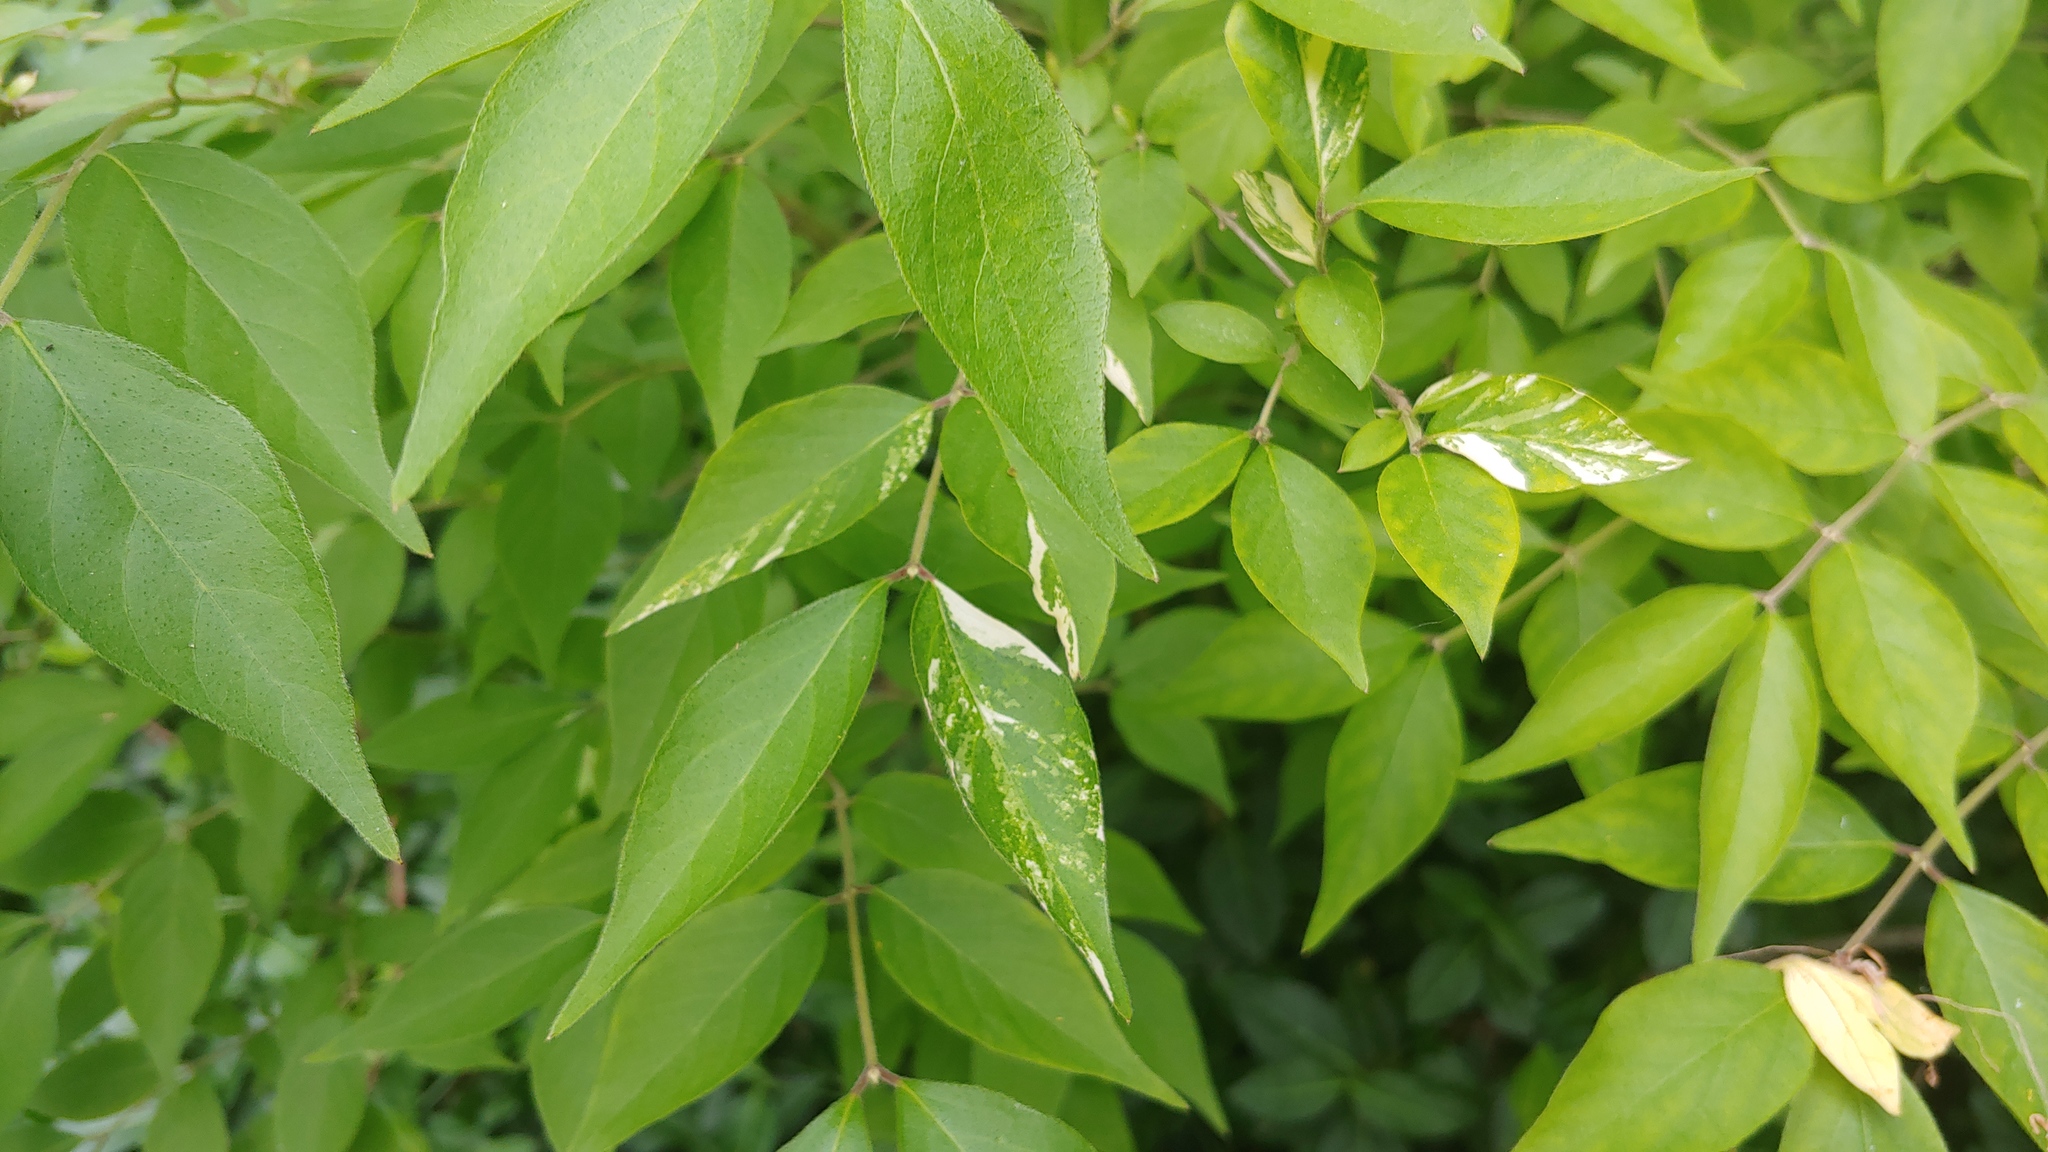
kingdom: Plantae
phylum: Tracheophyta
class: Magnoliopsida
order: Dipsacales
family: Caprifoliaceae
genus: Lonicera
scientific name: Lonicera maackii
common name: Amur honeysuckle
